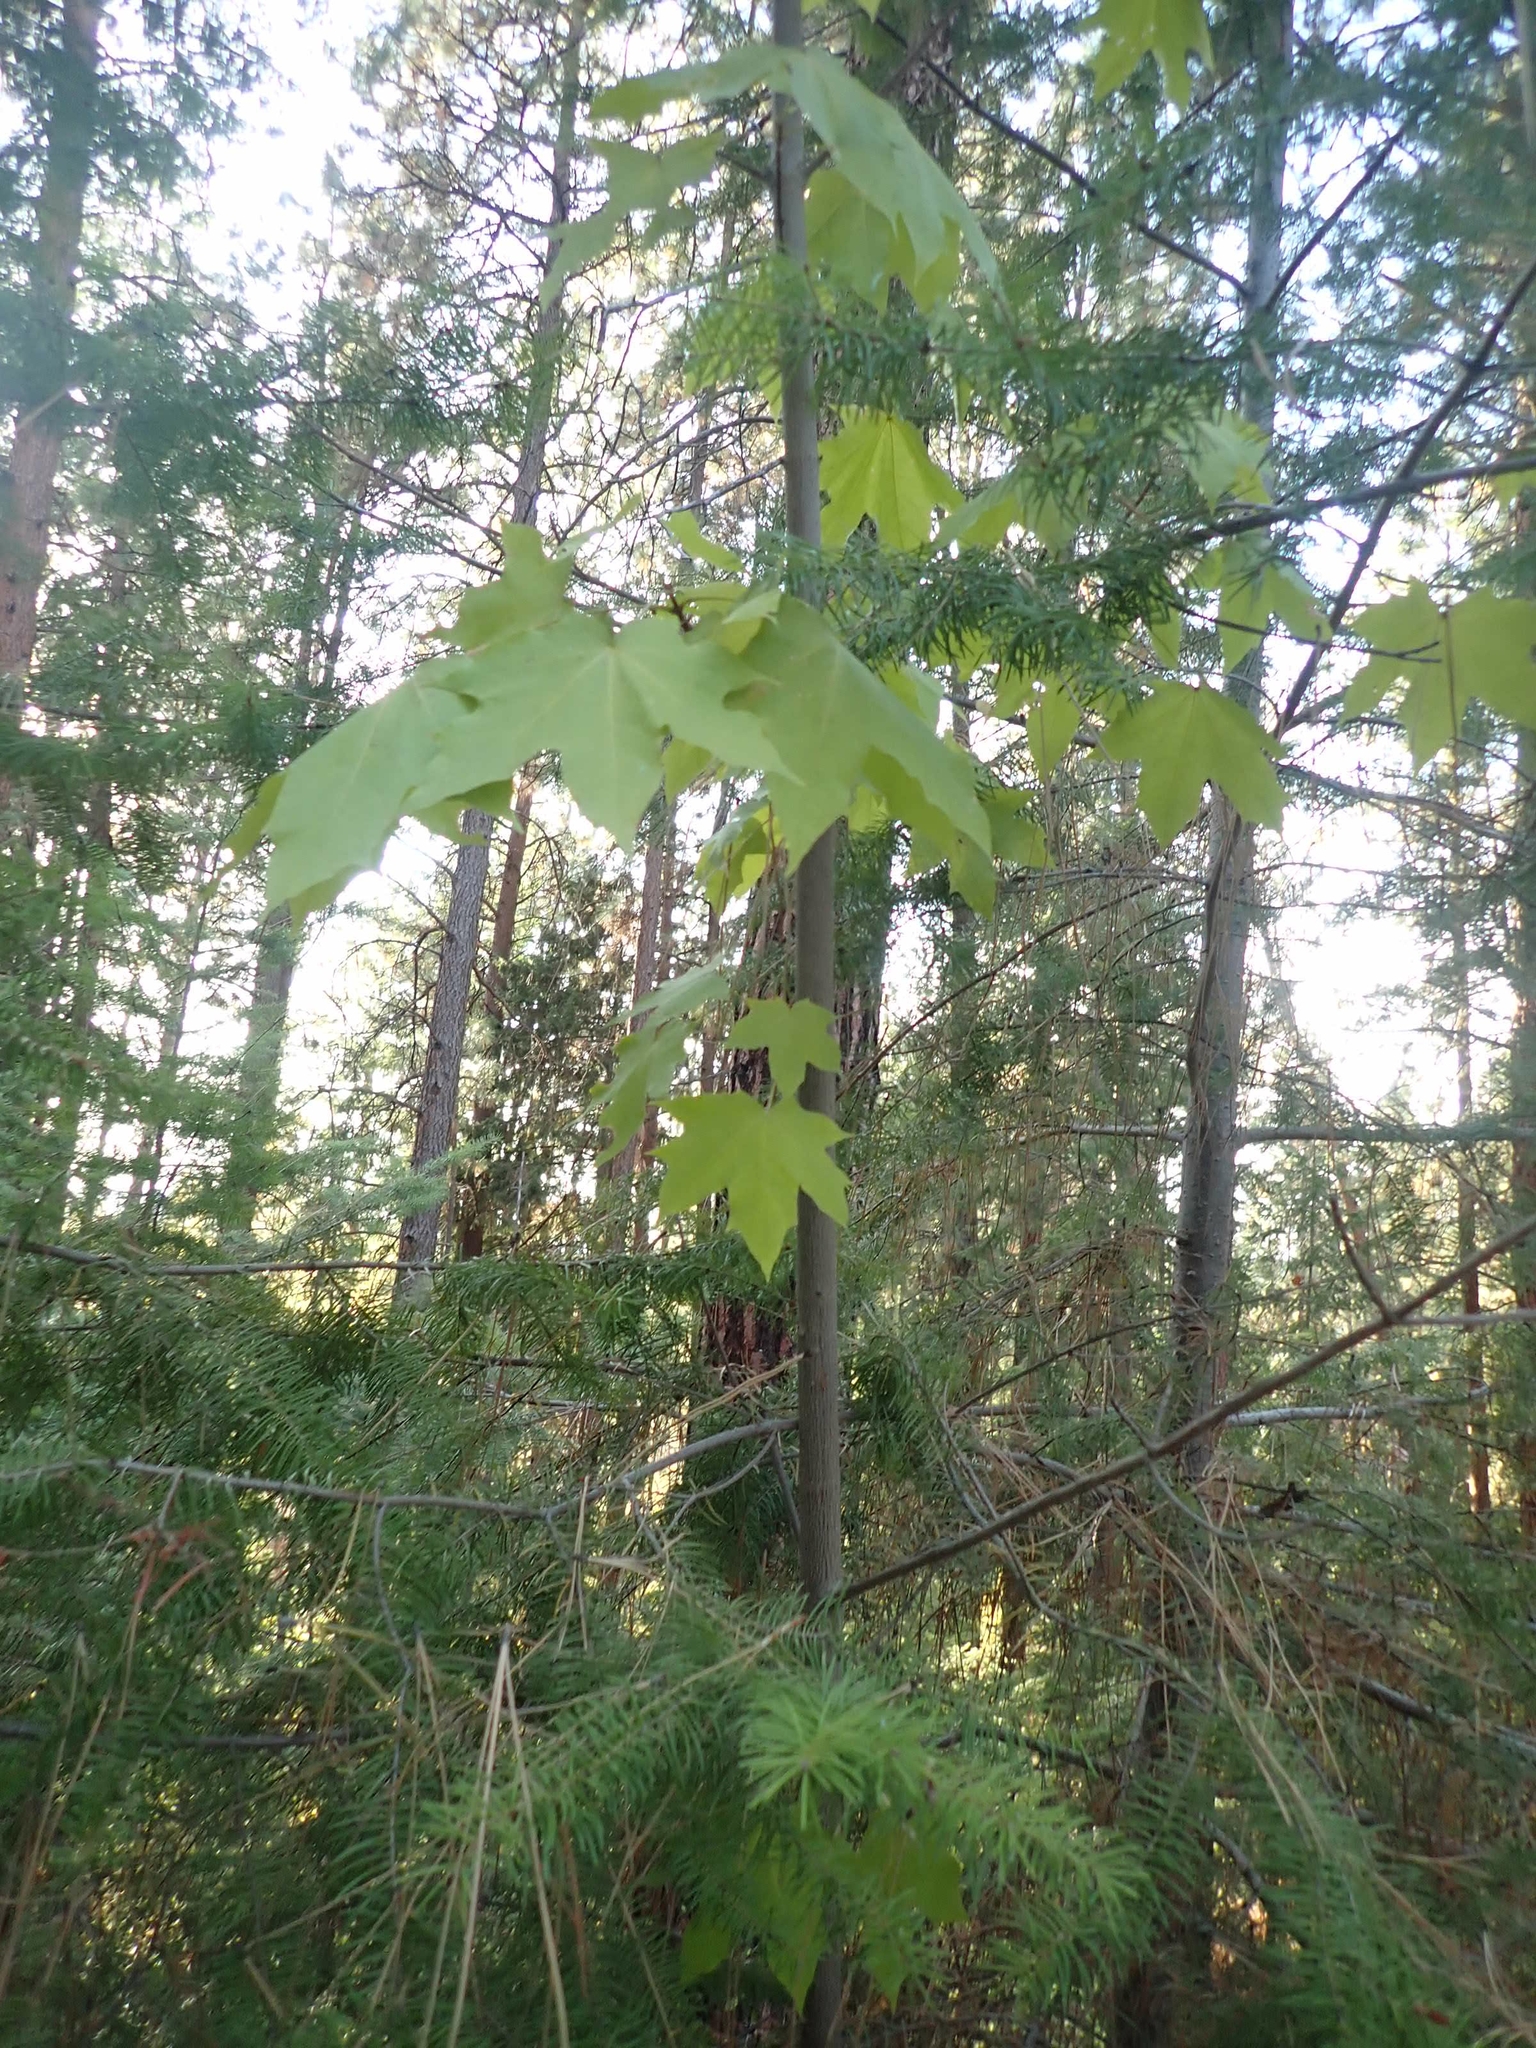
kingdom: Plantae
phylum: Tracheophyta
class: Magnoliopsida
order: Sapindales
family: Sapindaceae
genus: Acer
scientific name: Acer platanoides
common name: Norway maple
